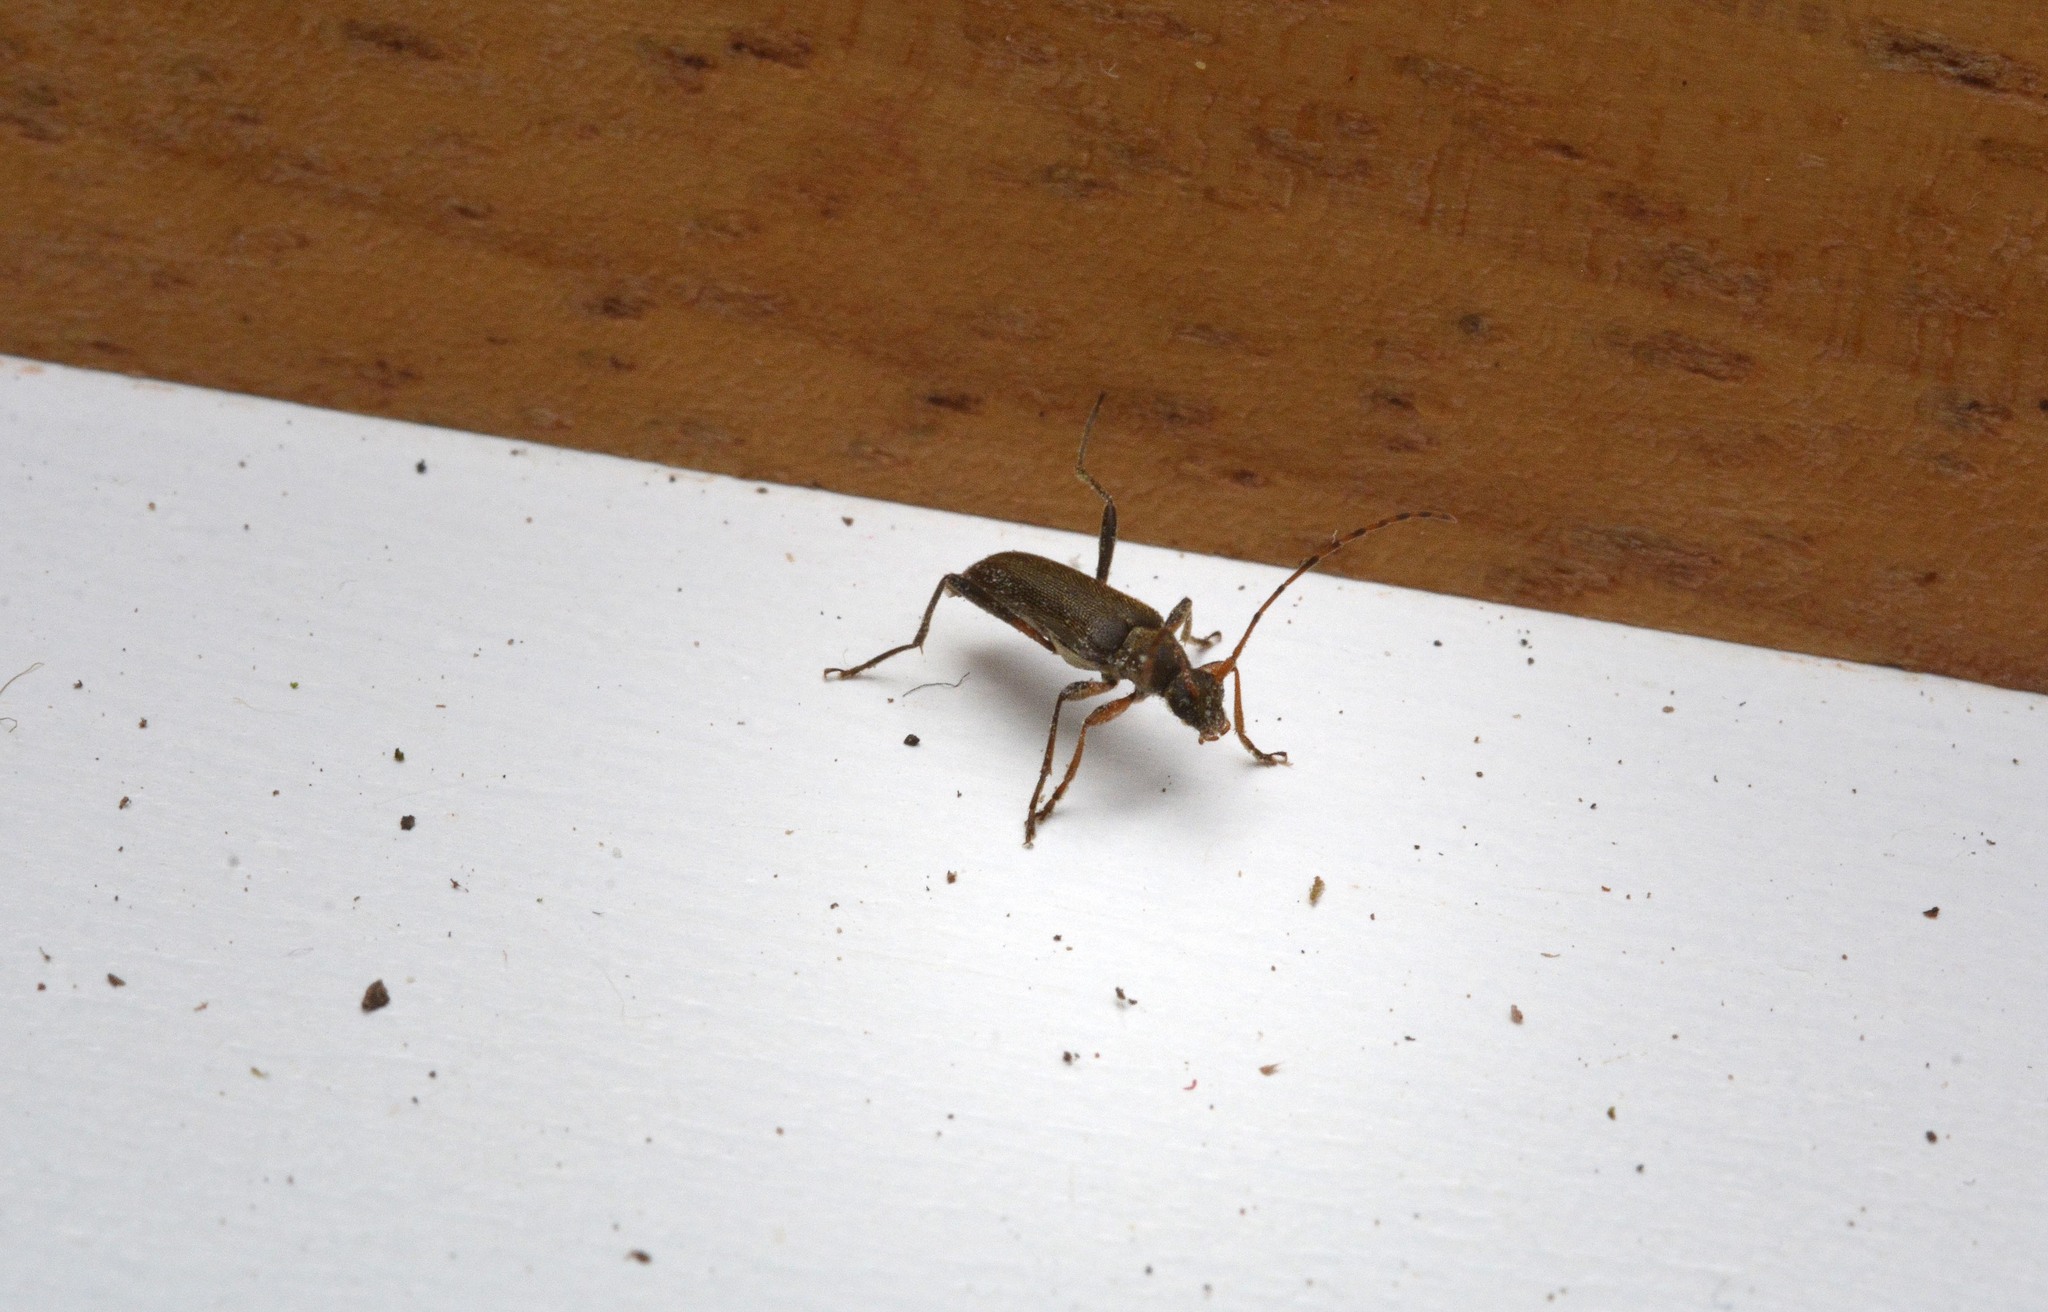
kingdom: Animalia
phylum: Arthropoda
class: Insecta
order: Coleoptera
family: Cerambycidae
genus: Grammoptera
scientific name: Grammoptera ruficornis
